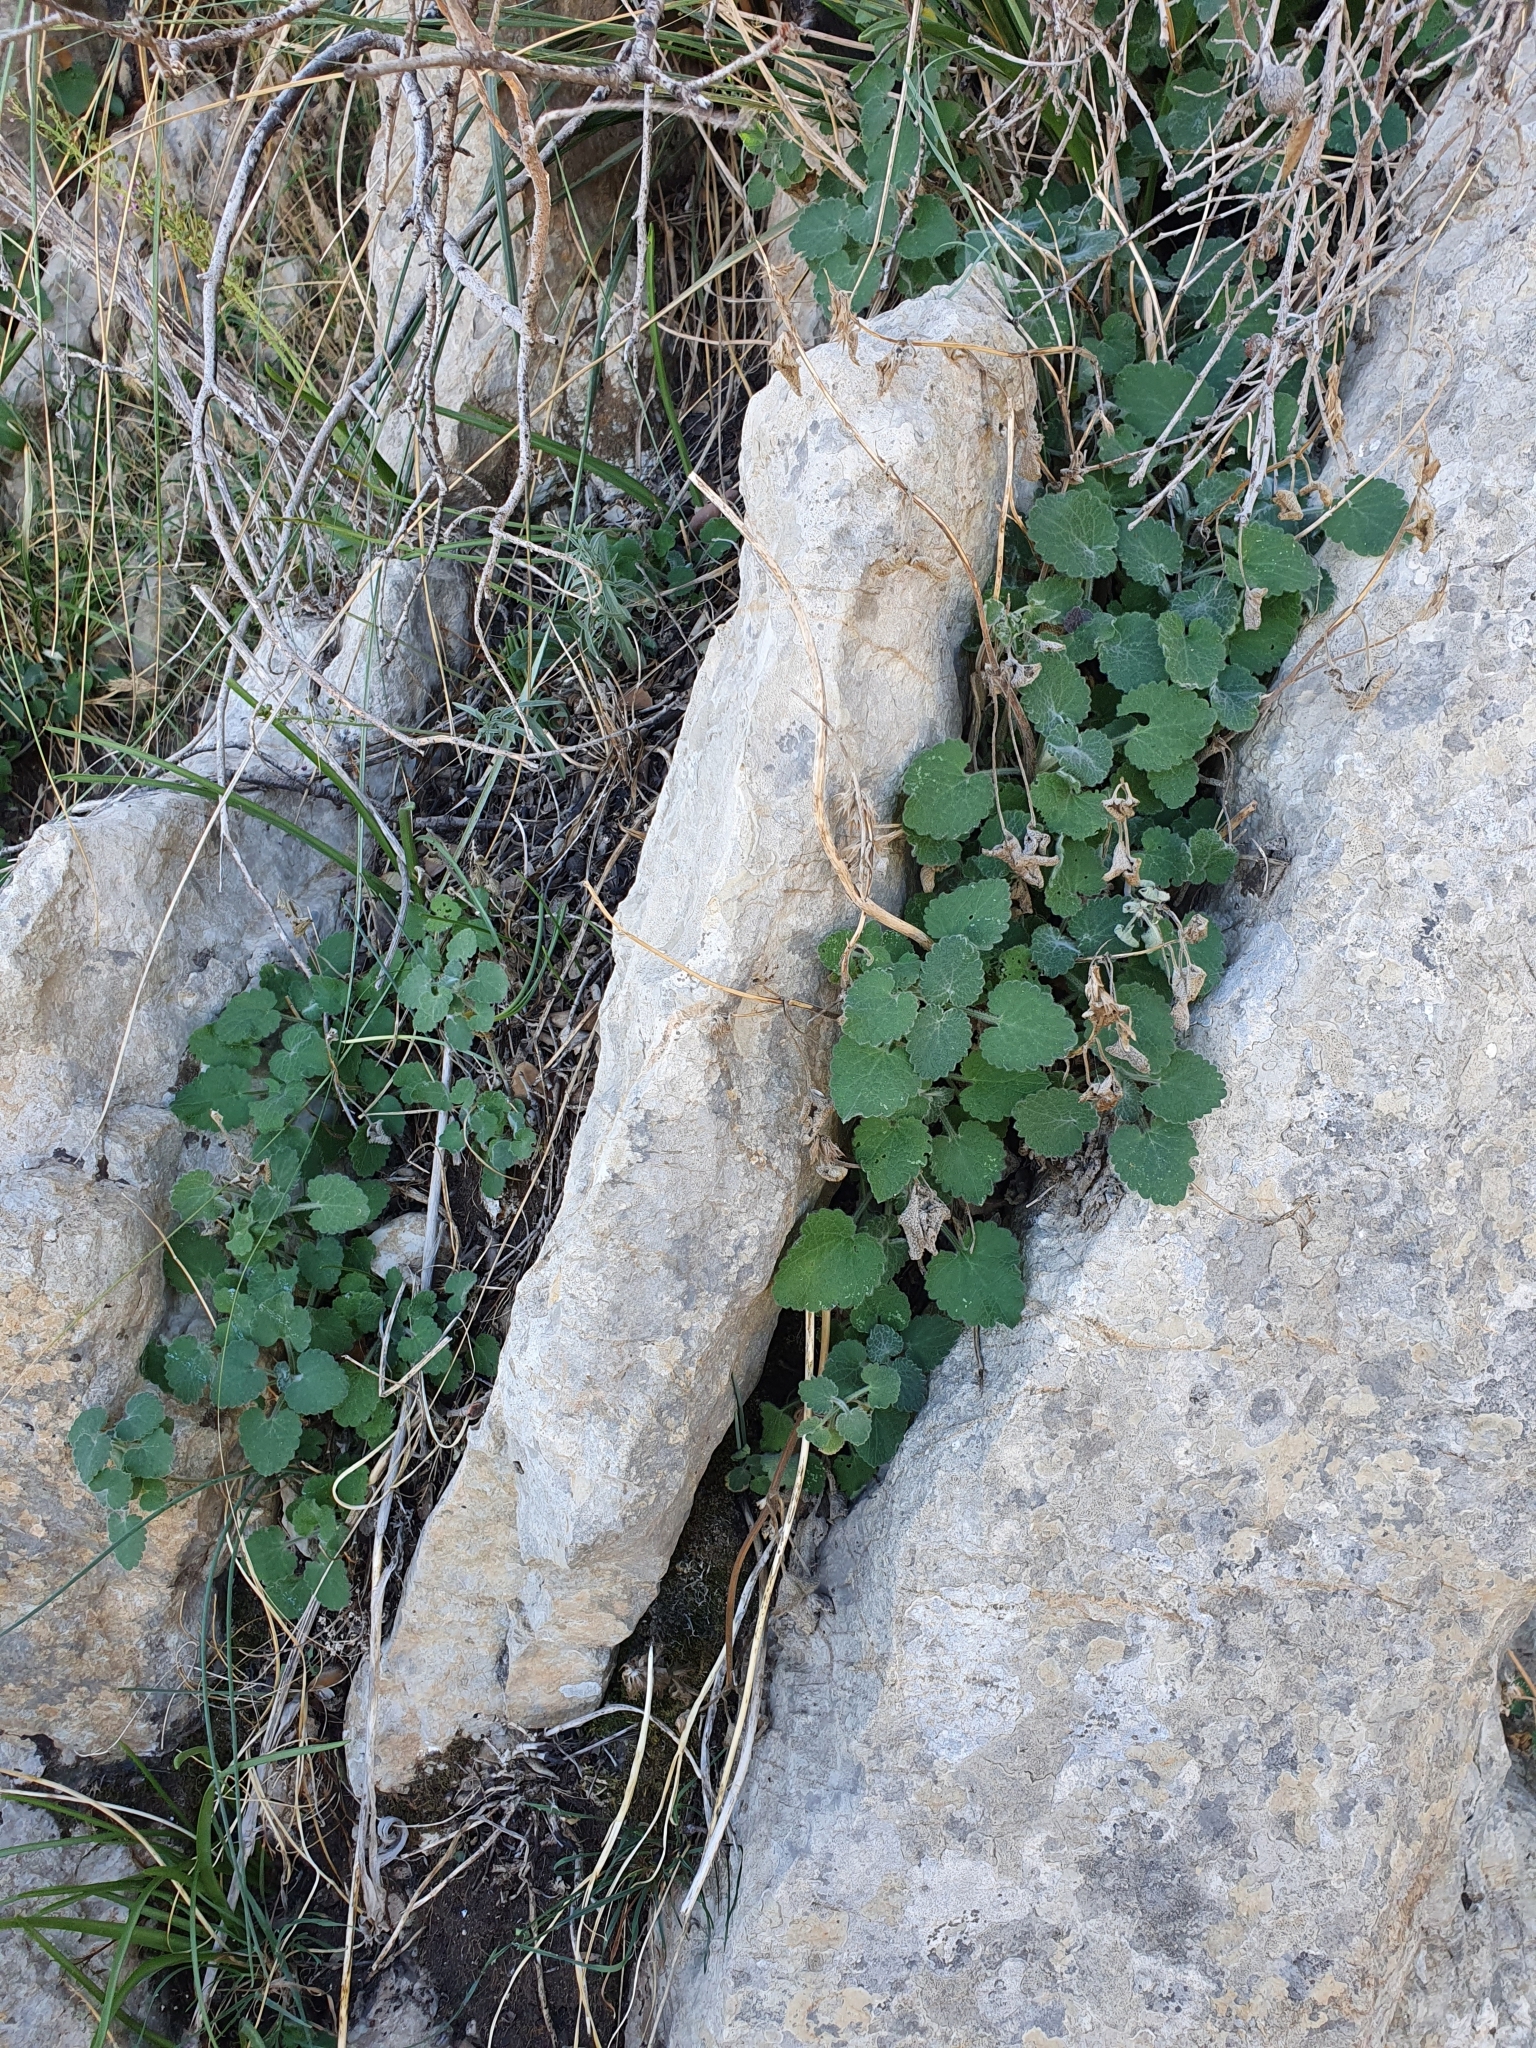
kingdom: Plantae
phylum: Tracheophyta
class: Magnoliopsida
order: Lamiales
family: Lamiaceae
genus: Stachys
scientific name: Stachys circinata
